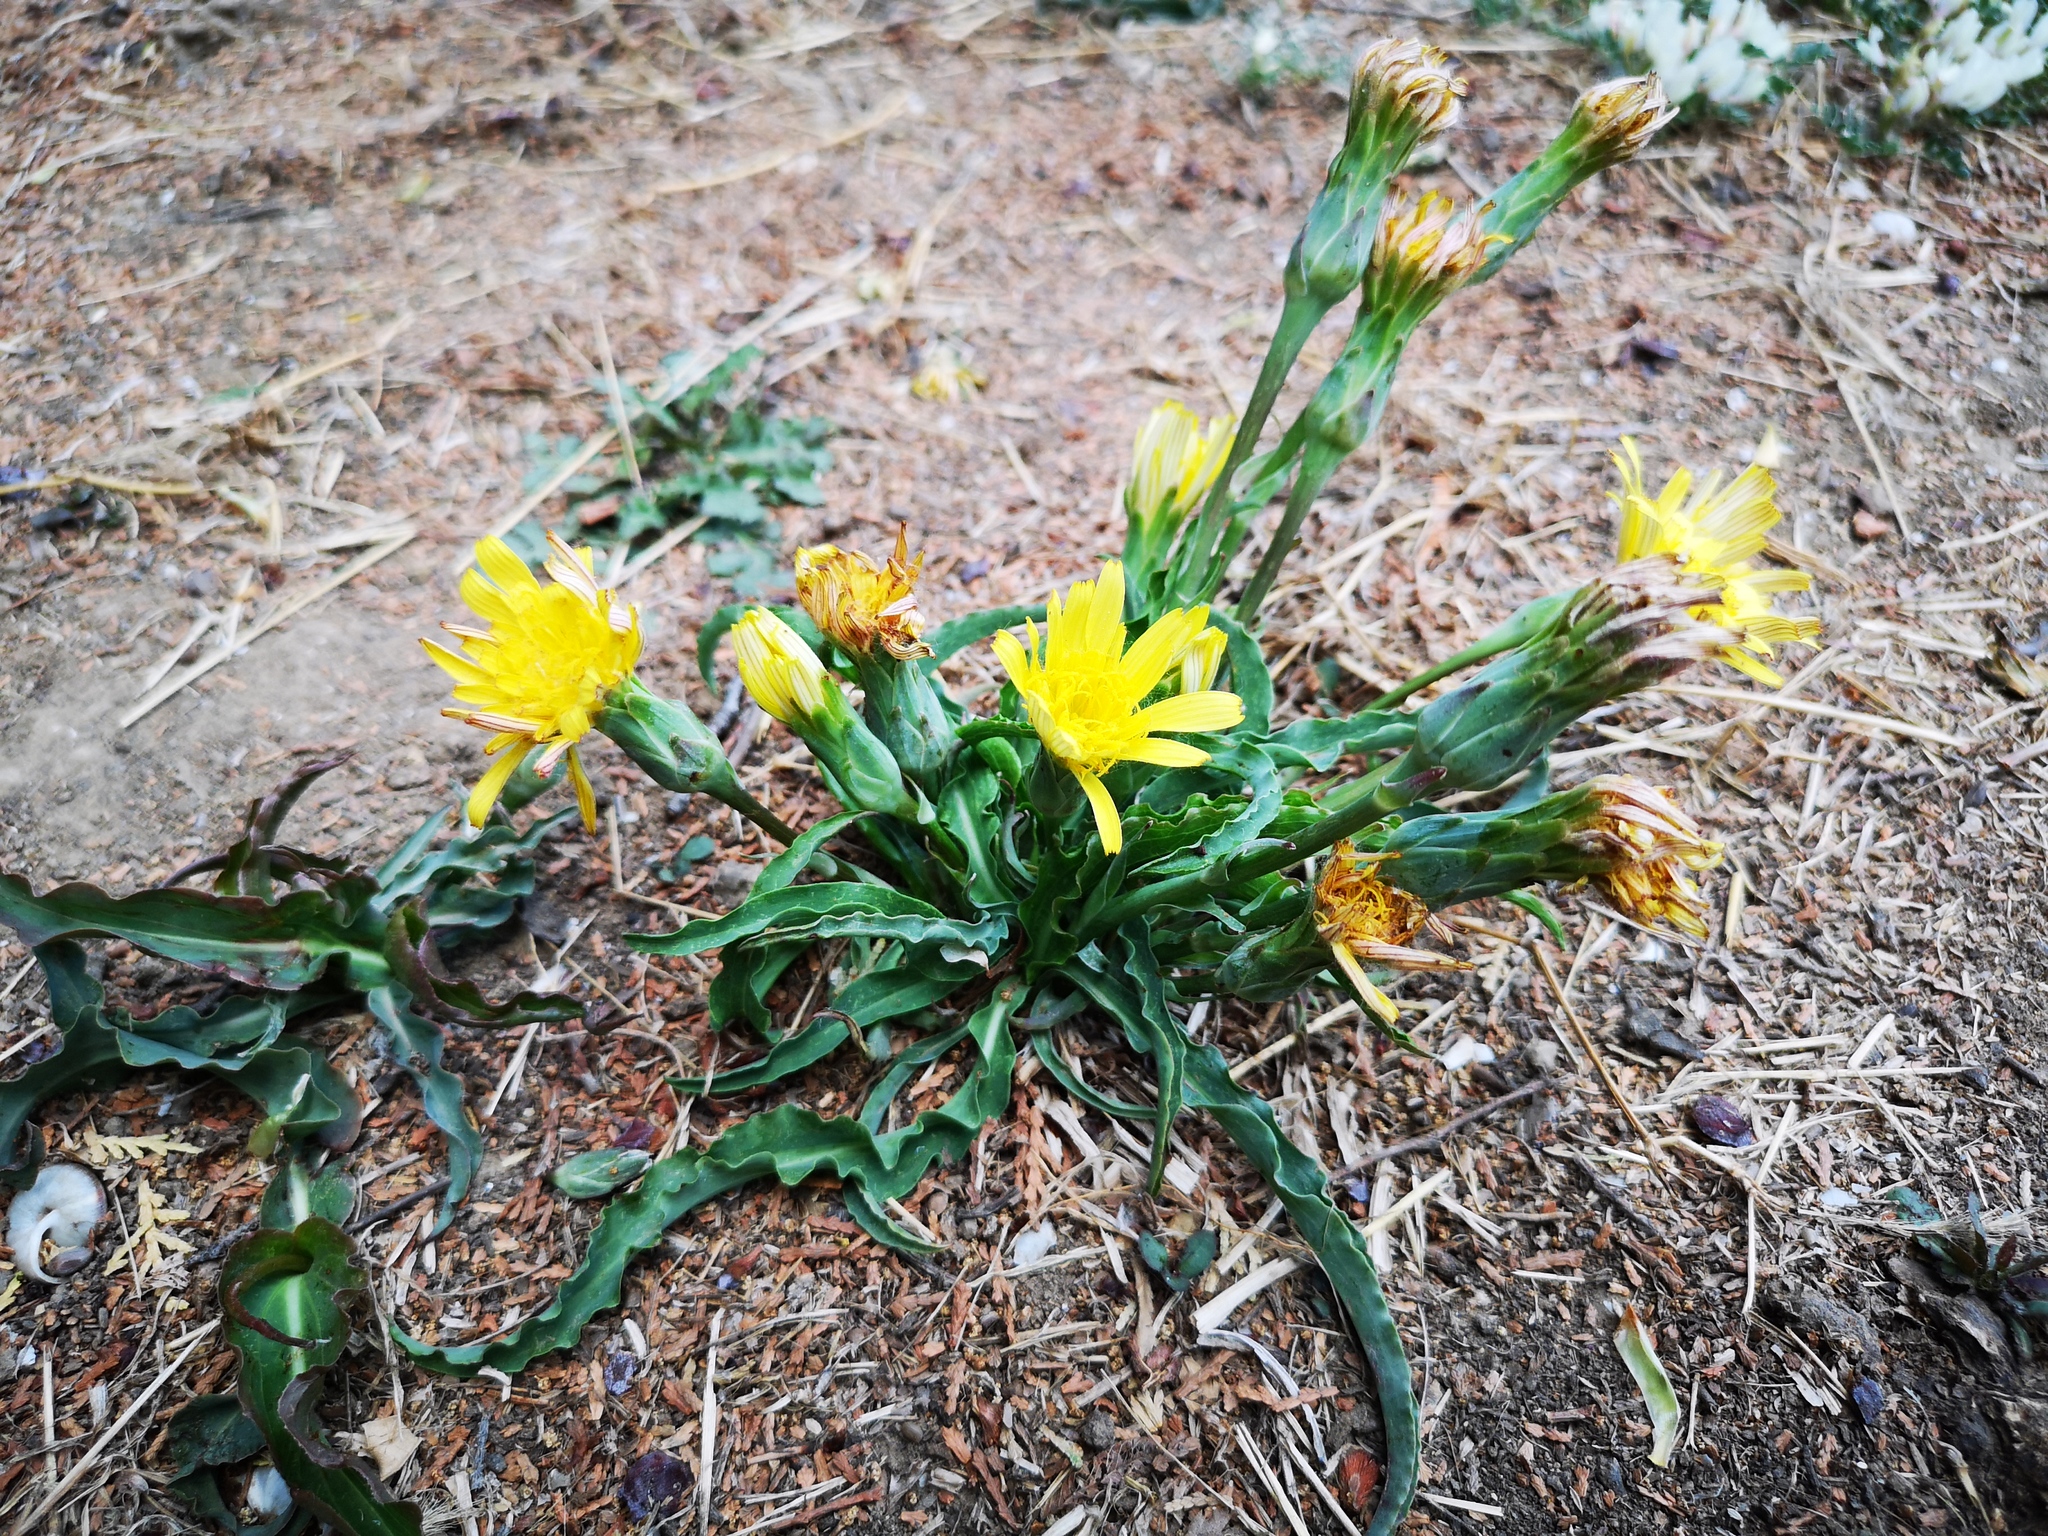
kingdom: Plantae
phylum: Tracheophyta
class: Magnoliopsida
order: Asterales
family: Asteraceae
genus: Scorzonera
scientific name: Scorzonera sinensis
